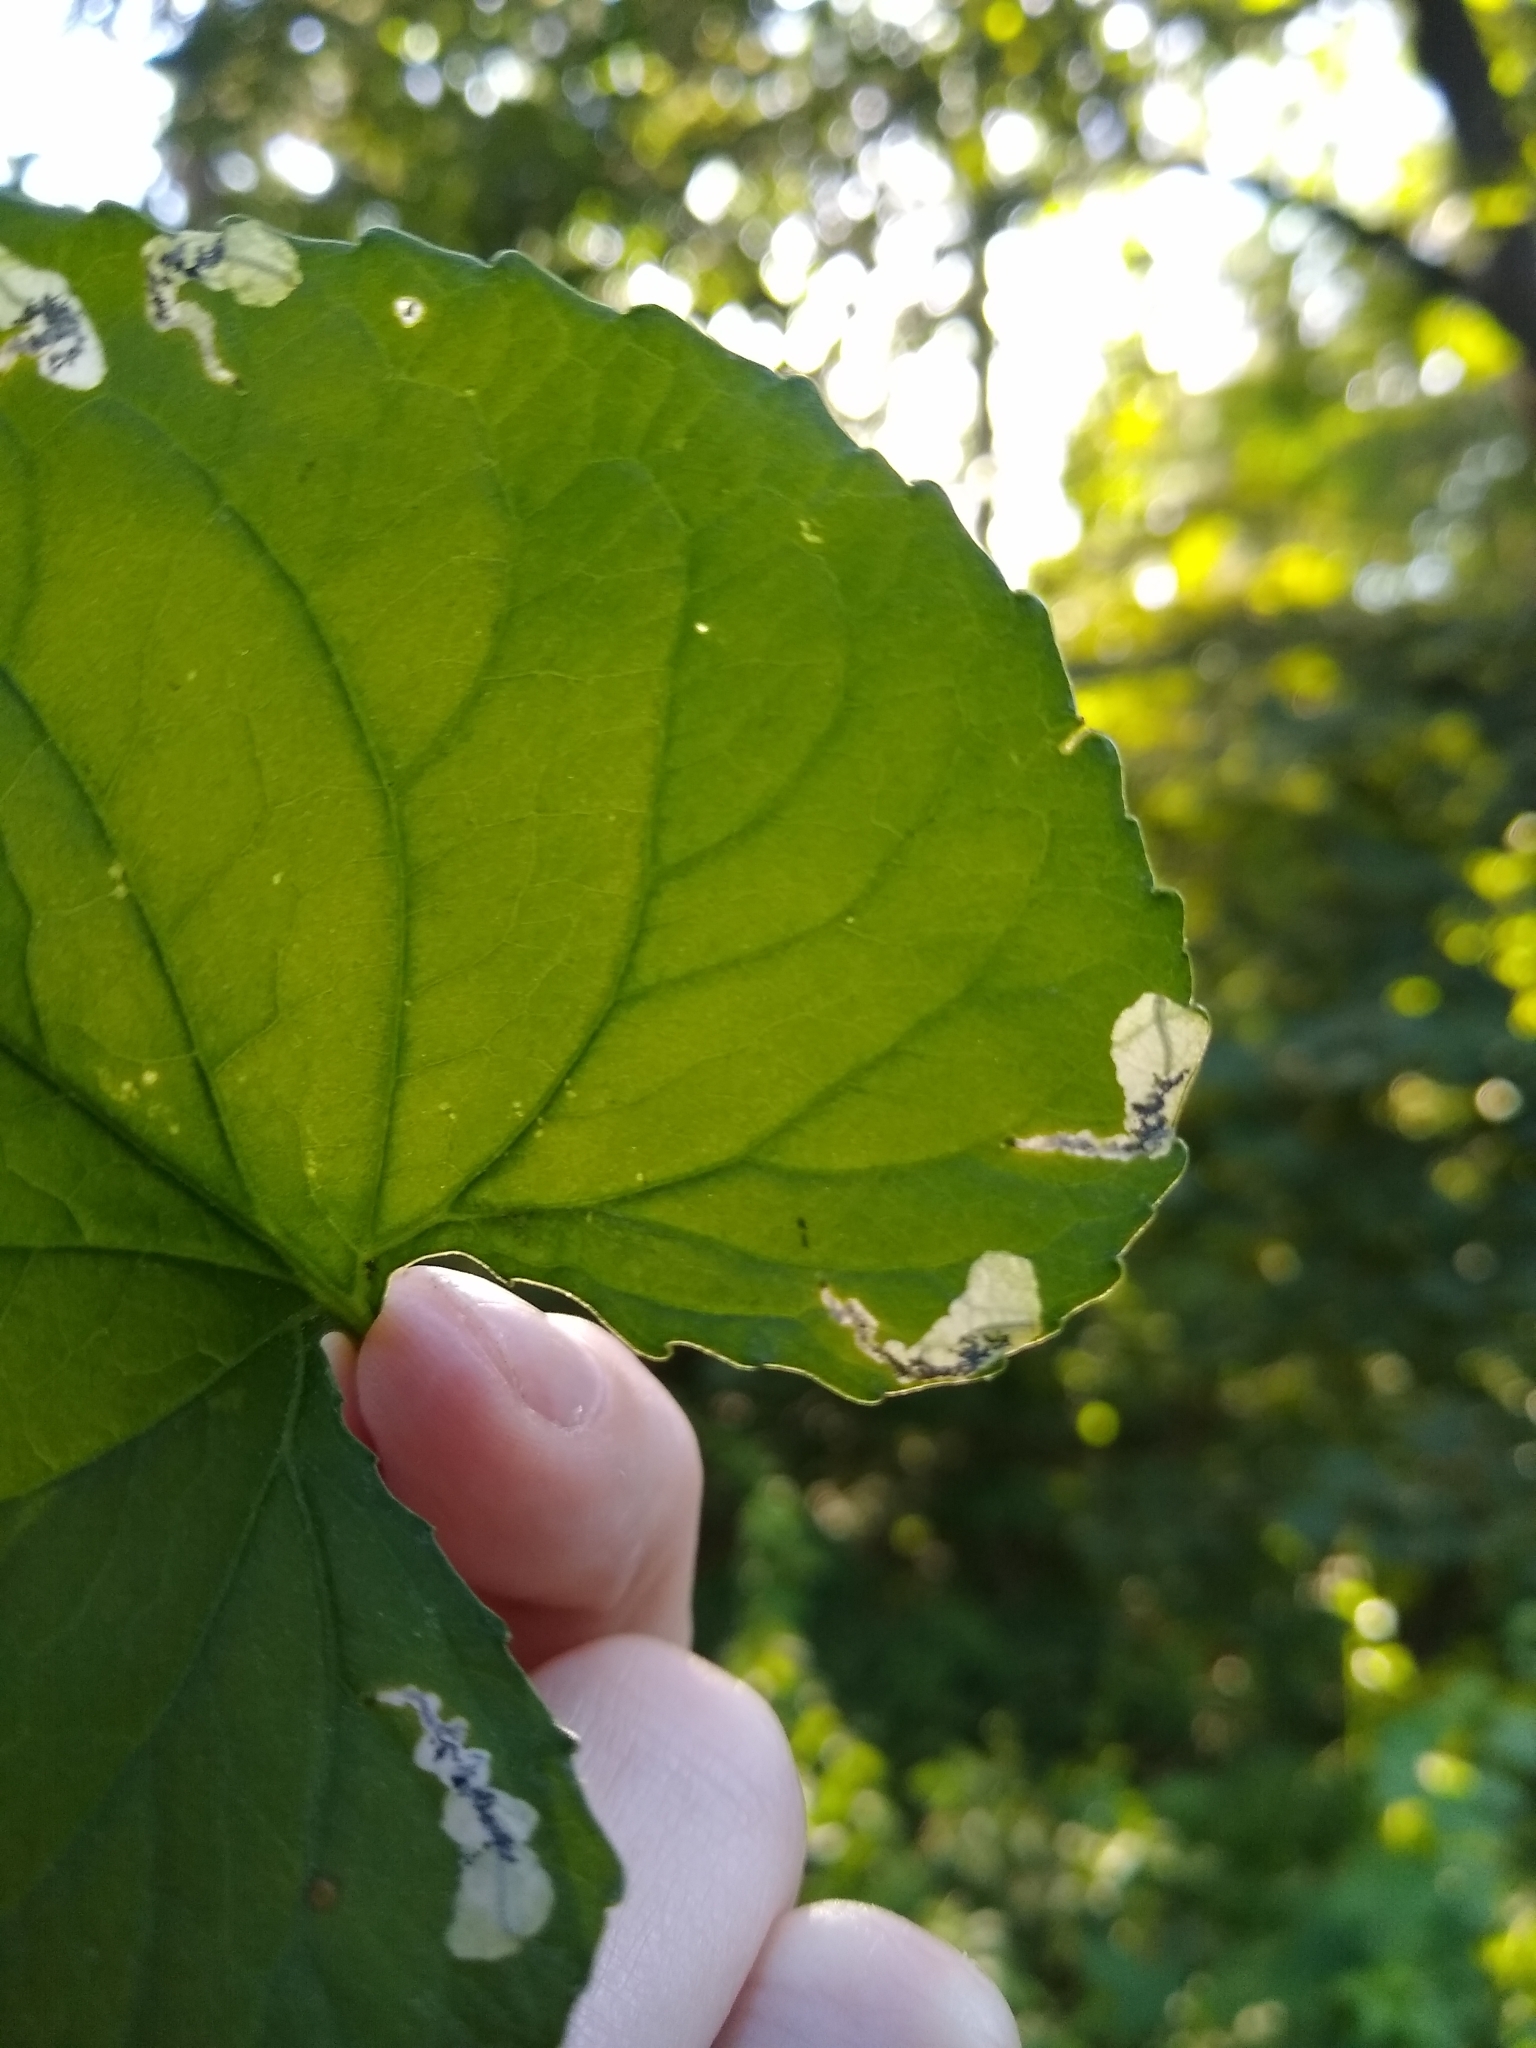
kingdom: Animalia
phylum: Arthropoda
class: Insecta
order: Hymenoptera
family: Tenthredinidae
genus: Nefusa
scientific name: Nefusa ambigua
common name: Violet leafmining sawfly
